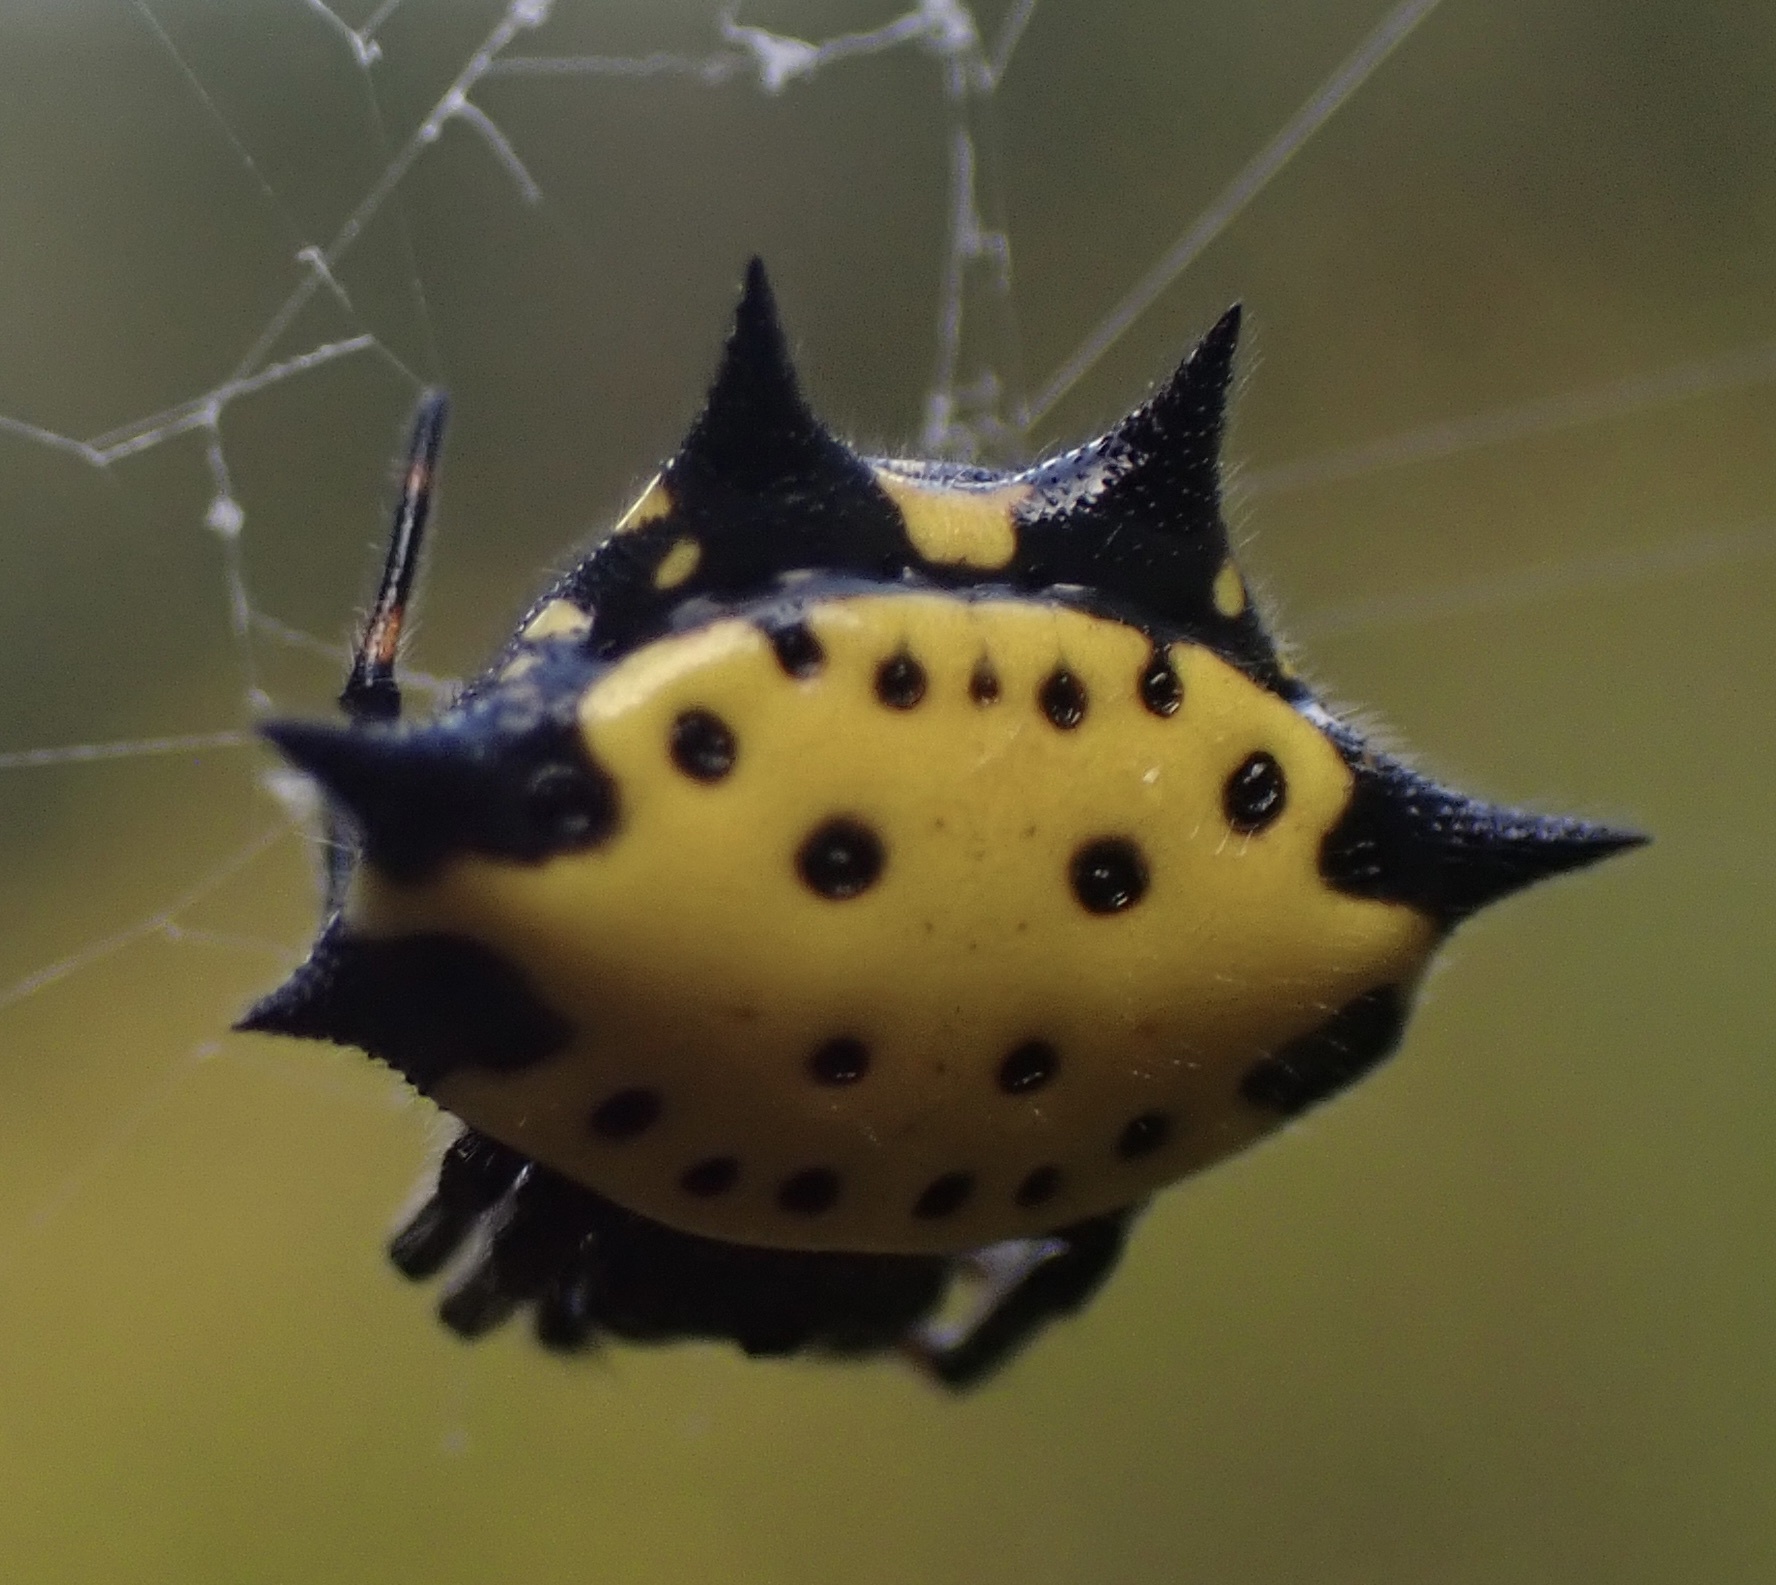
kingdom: Animalia
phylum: Arthropoda
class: Arachnida
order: Araneae
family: Araneidae
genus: Gasteracantha
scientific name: Gasteracantha cancriformis
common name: Orb weavers
